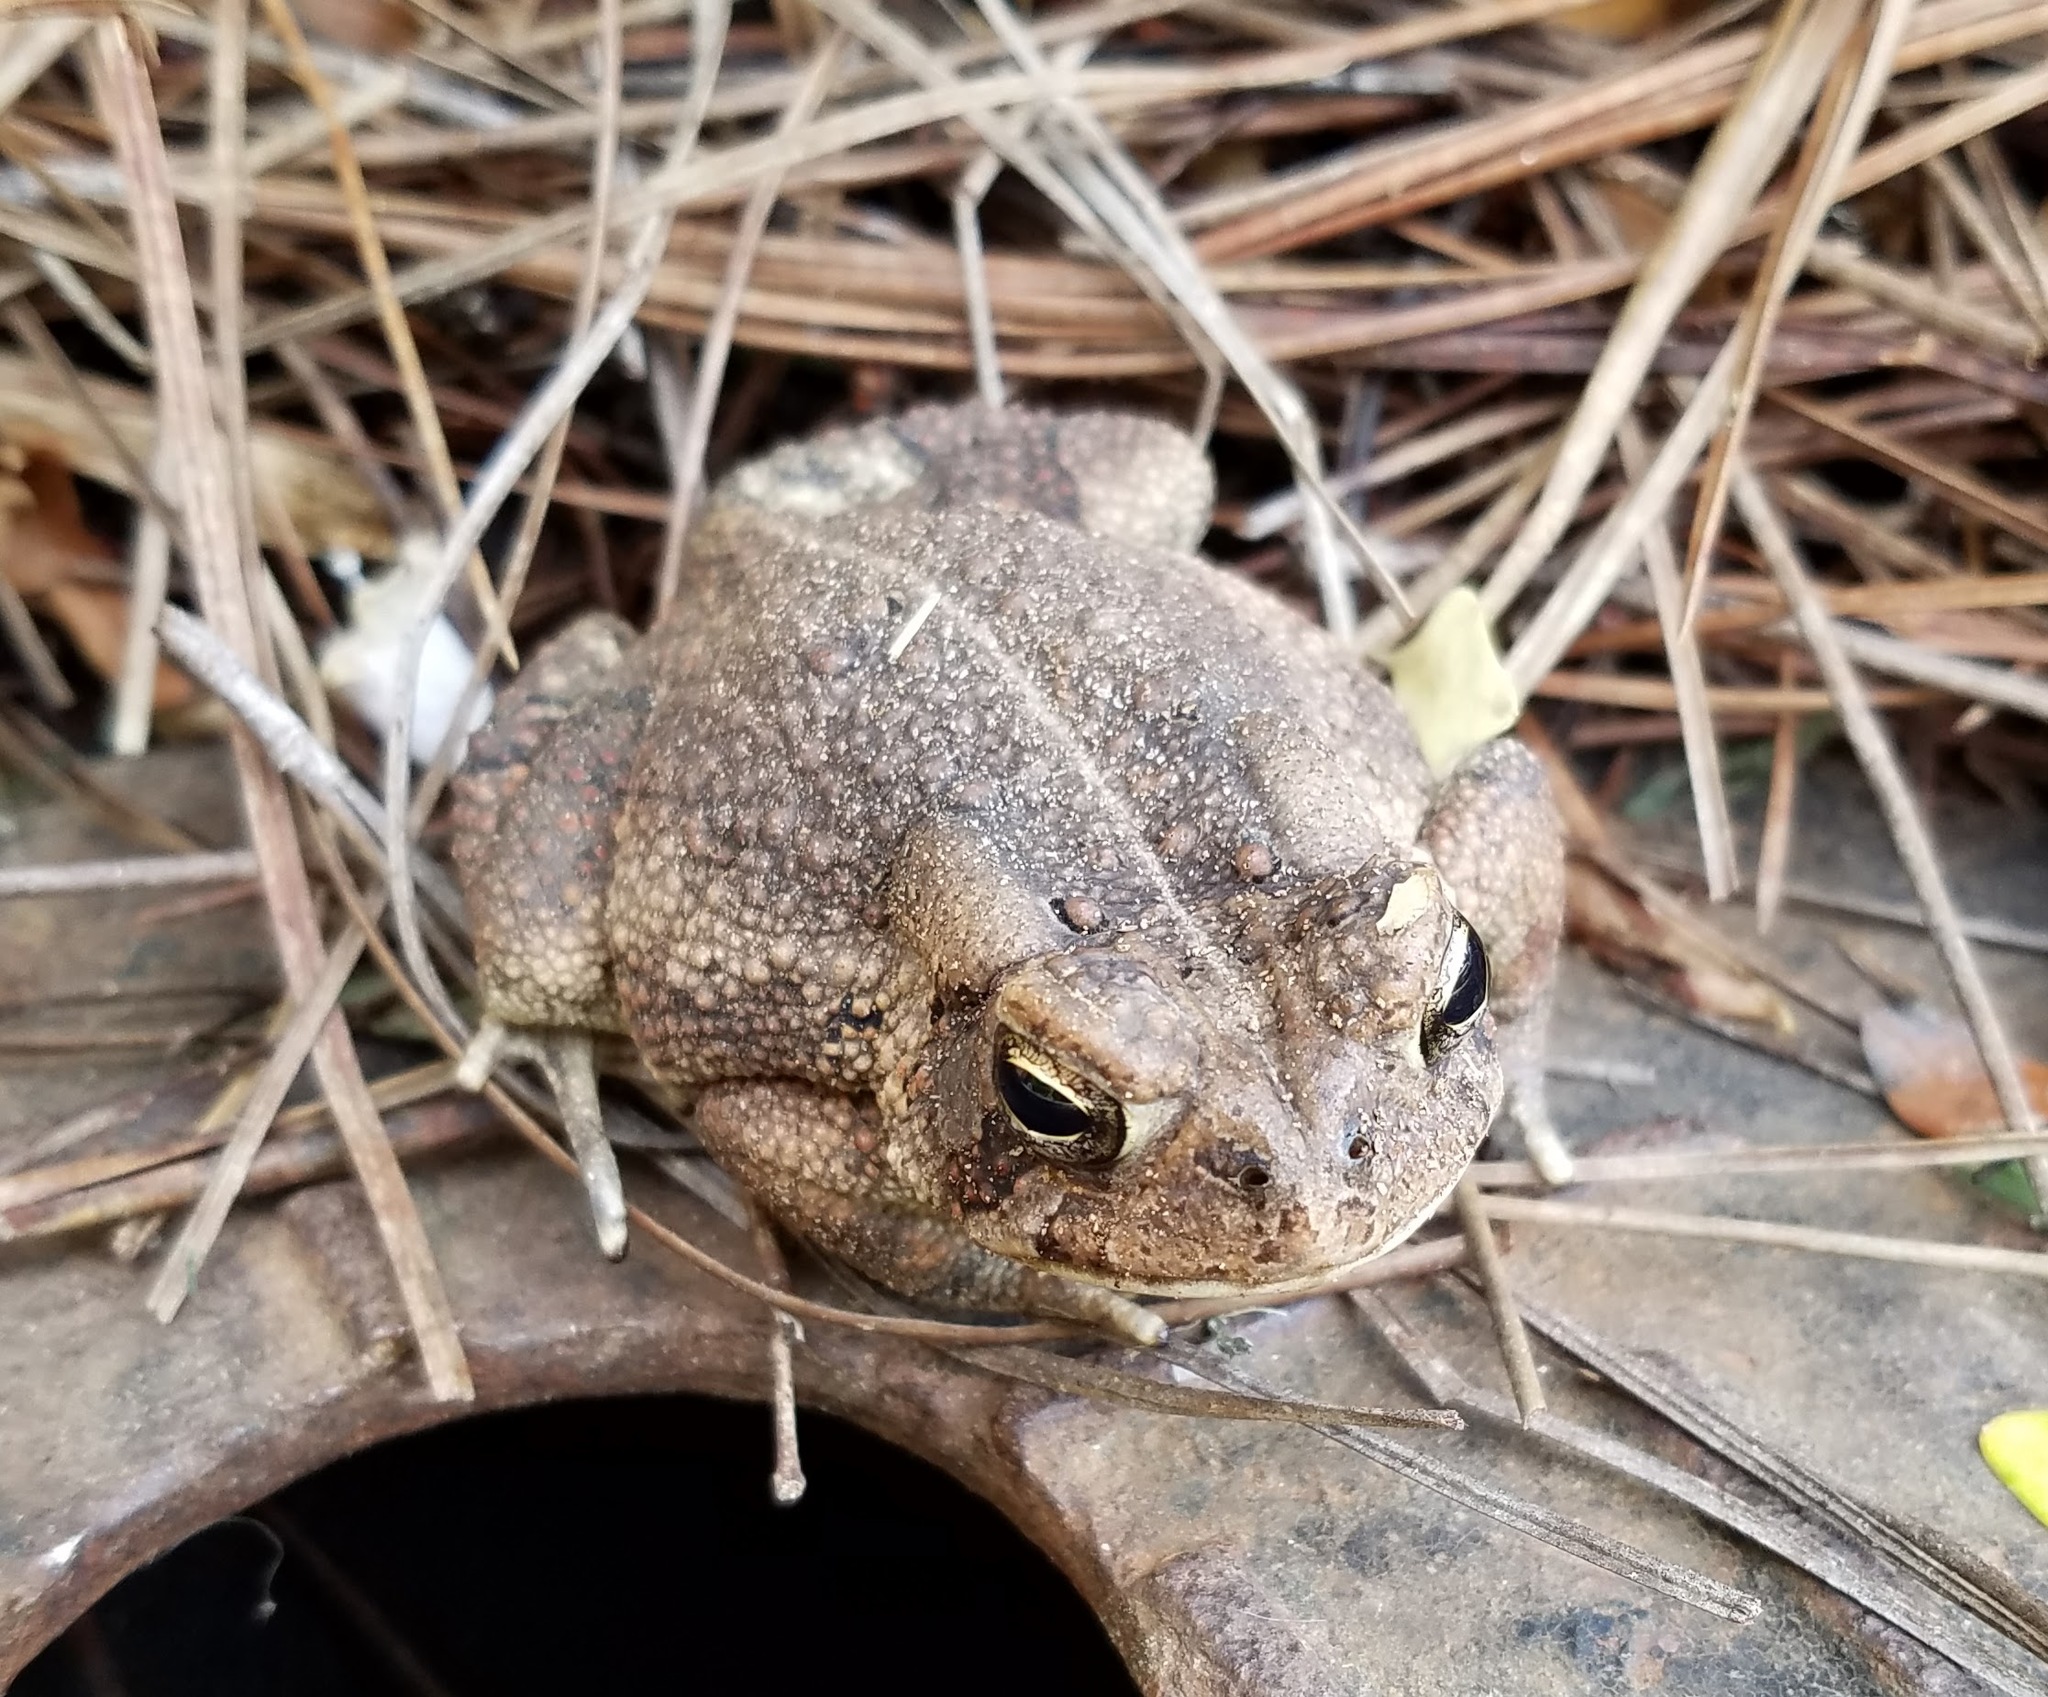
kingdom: Animalia
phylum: Chordata
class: Amphibia
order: Anura
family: Bufonidae
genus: Anaxyrus
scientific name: Anaxyrus fowleri
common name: Fowler's toad
